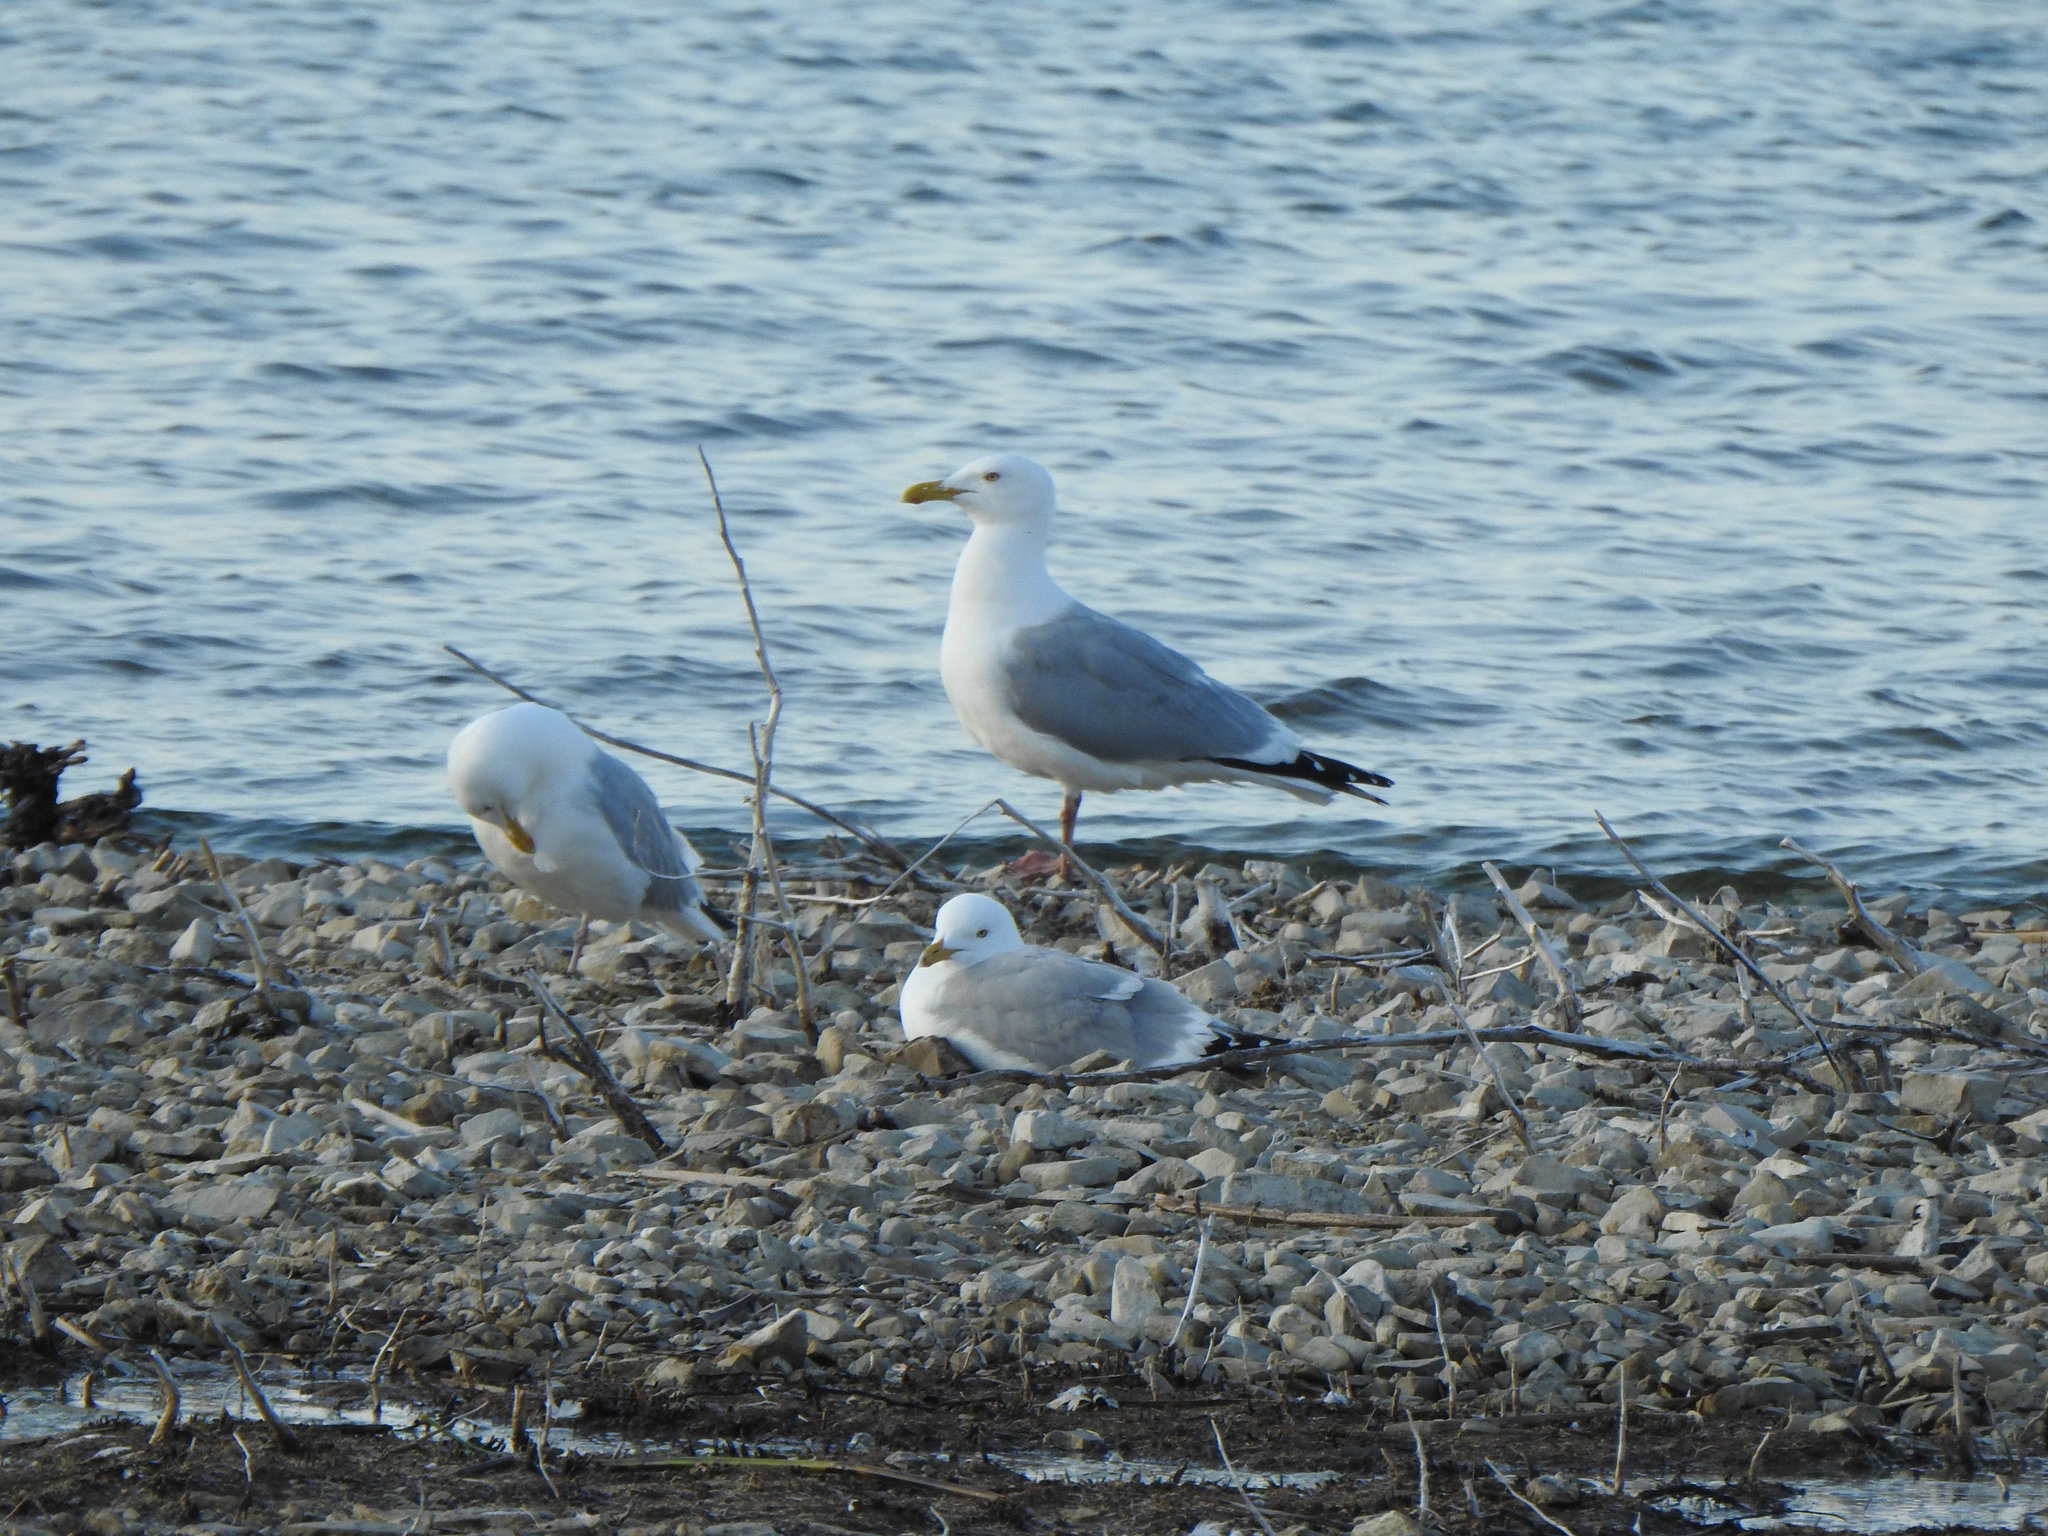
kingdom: Animalia
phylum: Chordata
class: Aves
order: Charadriiformes
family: Laridae
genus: Larus
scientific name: Larus argentatus
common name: Herring gull
